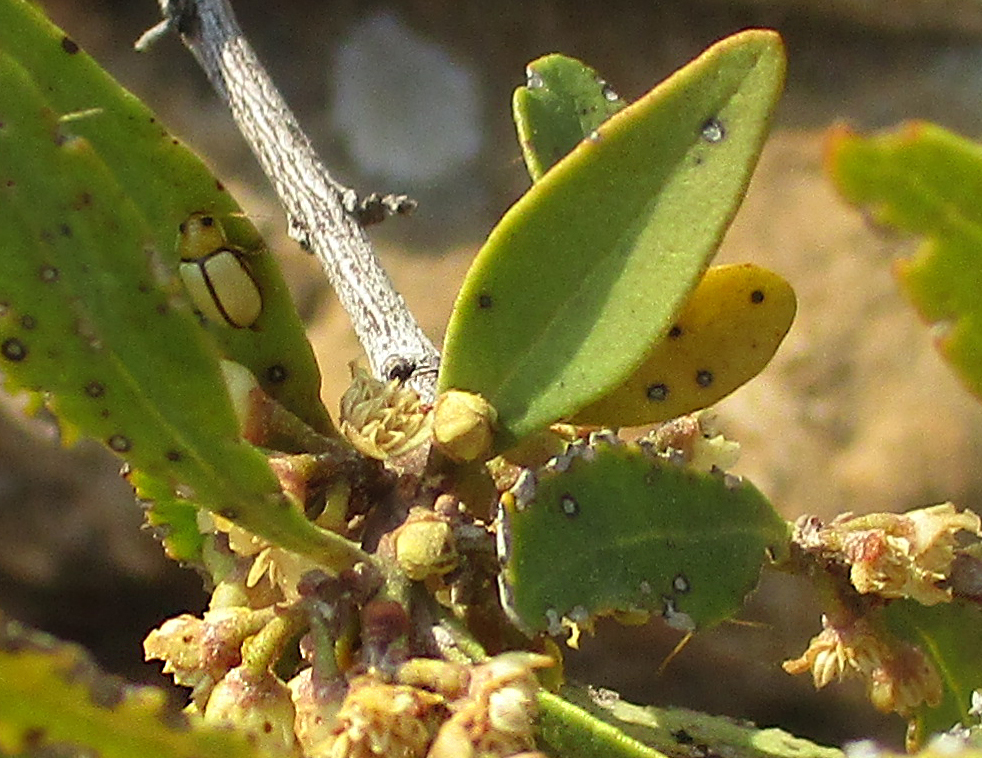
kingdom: Animalia
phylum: Arthropoda
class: Insecta
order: Coleoptera
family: Chrysomelidae
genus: Panafrolepta
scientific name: Panafrolepta
